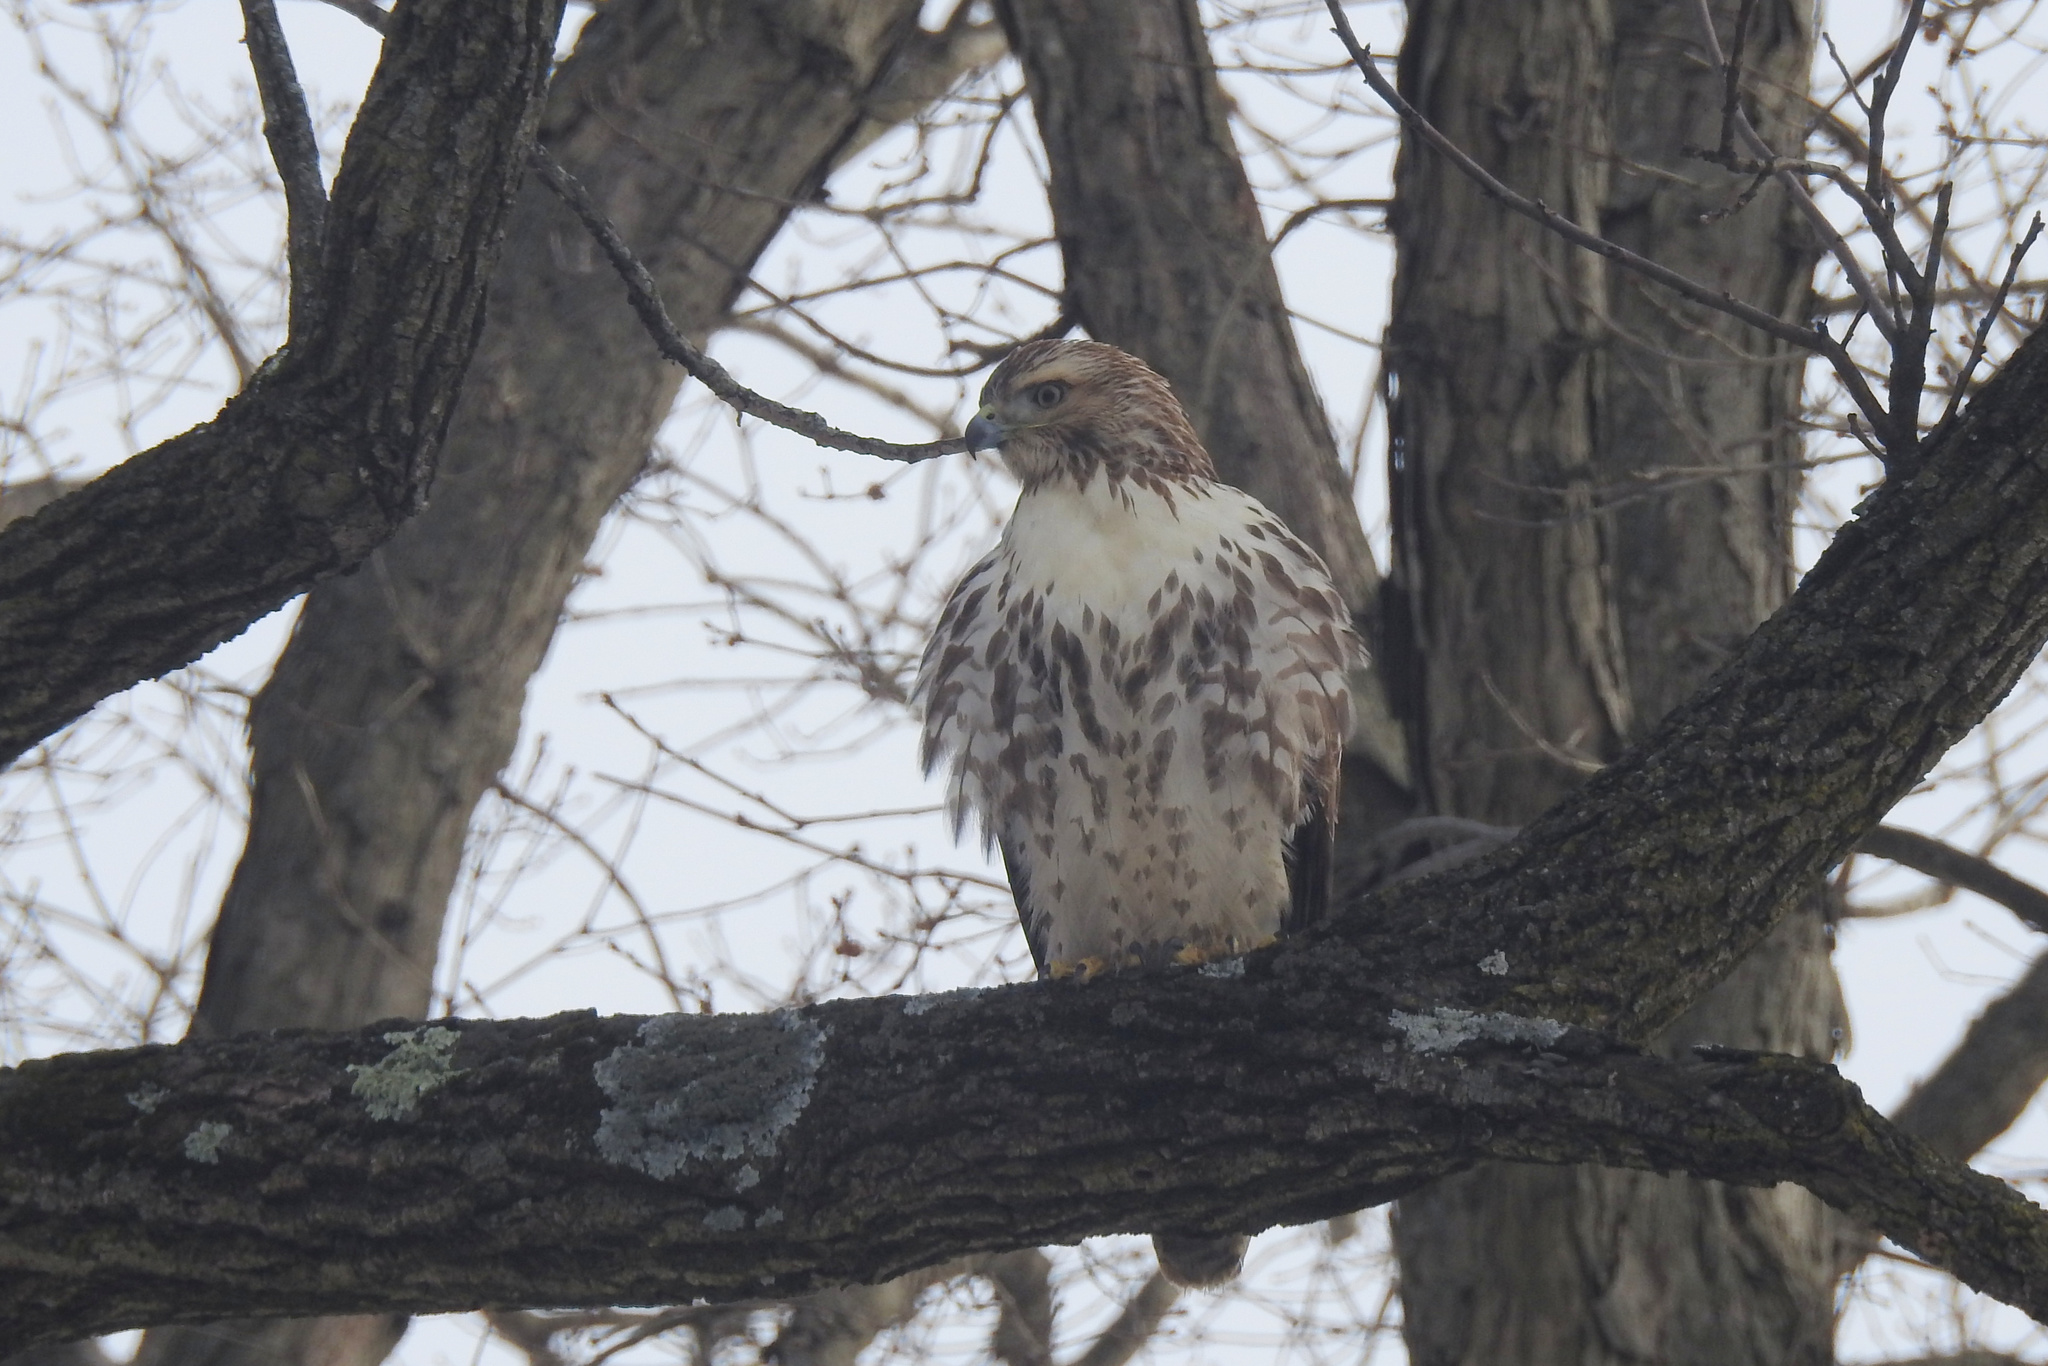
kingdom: Animalia
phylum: Chordata
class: Aves
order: Accipitriformes
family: Accipitridae
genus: Buteo
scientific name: Buteo jamaicensis
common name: Red-tailed hawk
